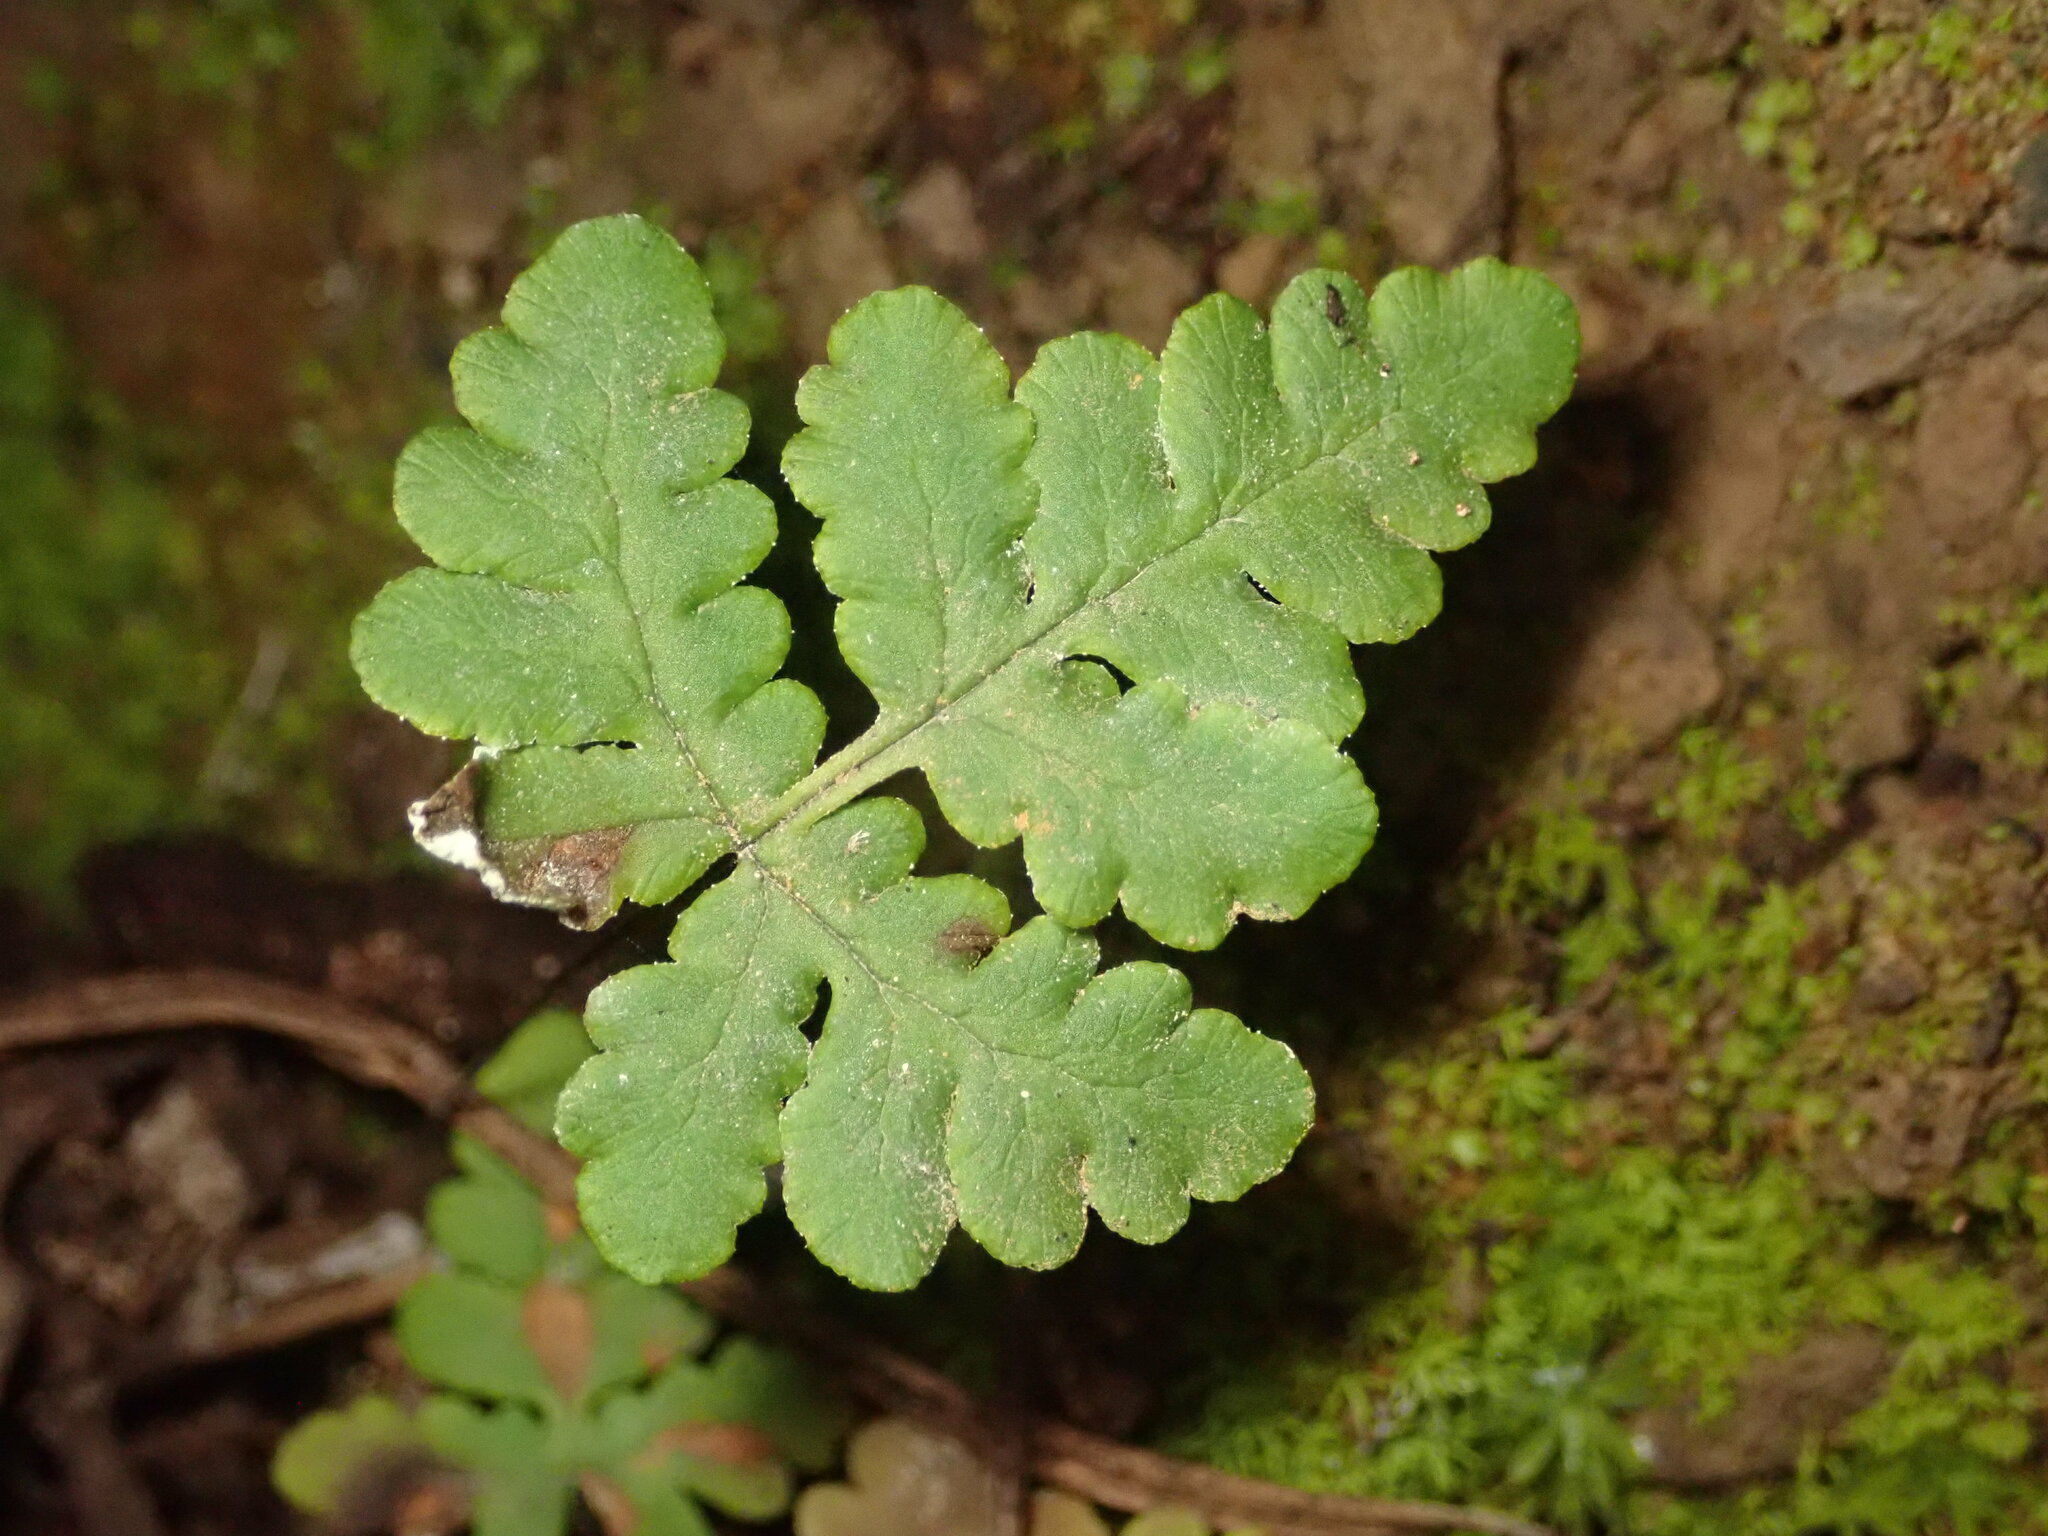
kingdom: Plantae
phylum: Tracheophyta
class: Polypodiopsida
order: Polypodiales
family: Pteridaceae
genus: Pentagramma
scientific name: Pentagramma triangularis
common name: Gold fern
